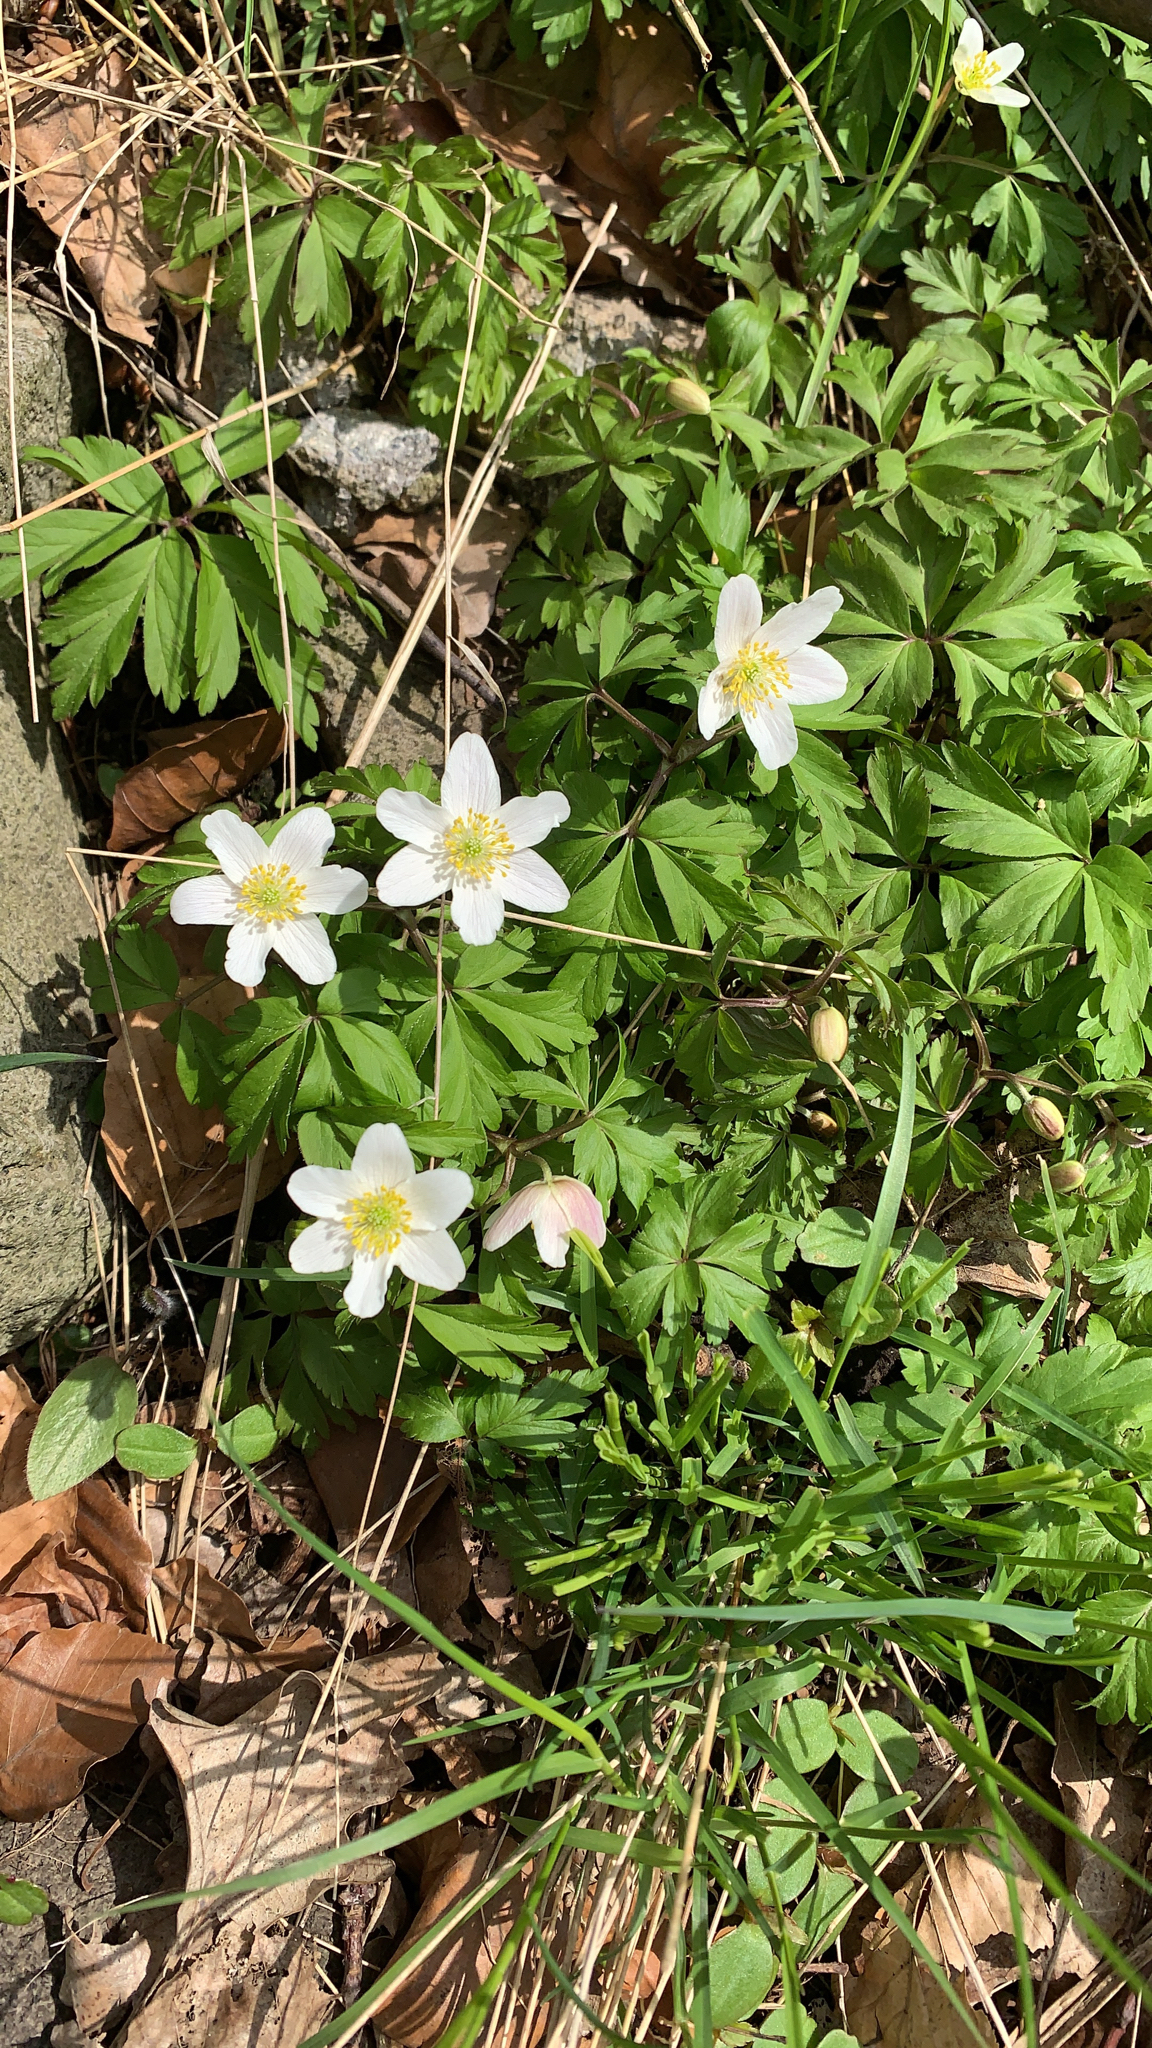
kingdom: Plantae
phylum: Tracheophyta
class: Magnoliopsida
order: Ranunculales
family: Ranunculaceae
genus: Anemone
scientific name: Anemone nemorosa
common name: Wood anemone
